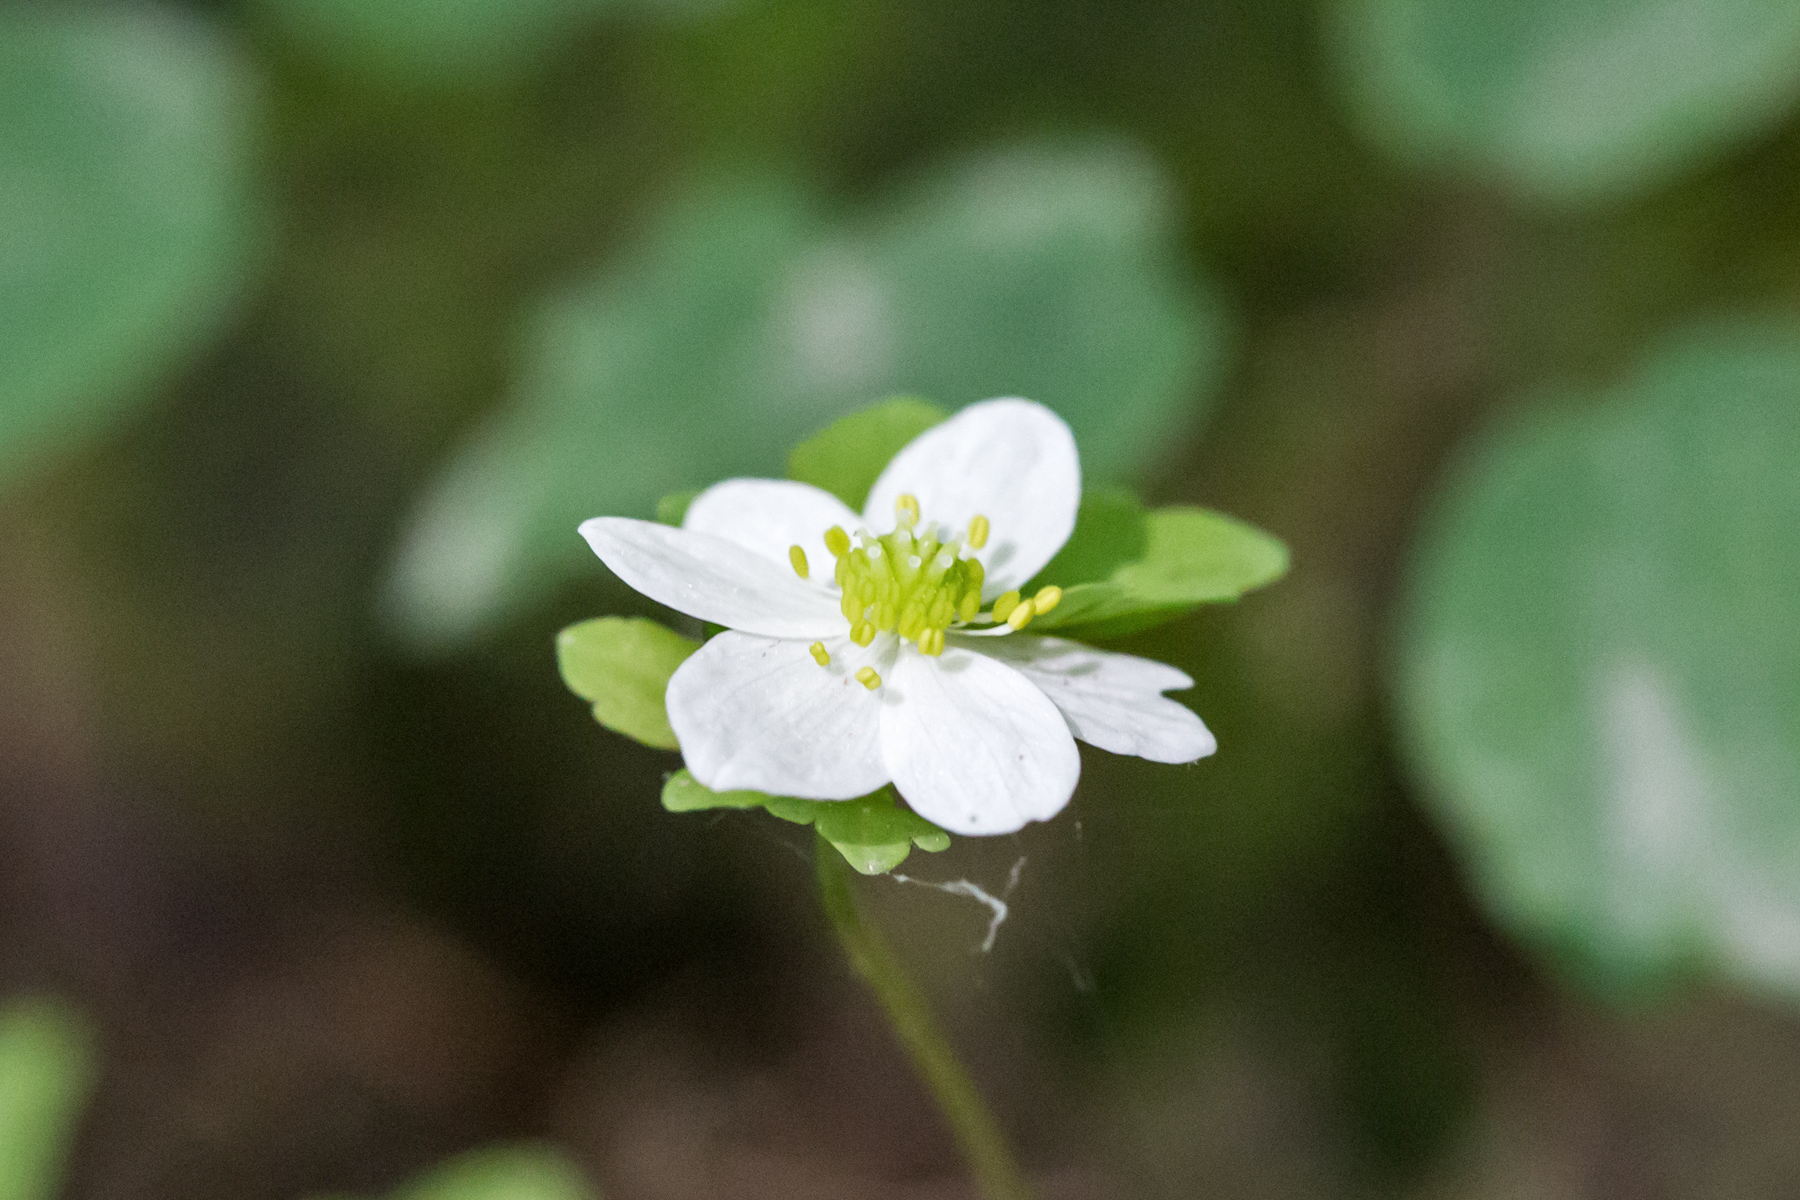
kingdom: Plantae
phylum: Tracheophyta
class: Magnoliopsida
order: Ranunculales
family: Ranunculaceae
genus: Thalictrum
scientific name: Thalictrum thalictroides
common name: Rue-anemone
